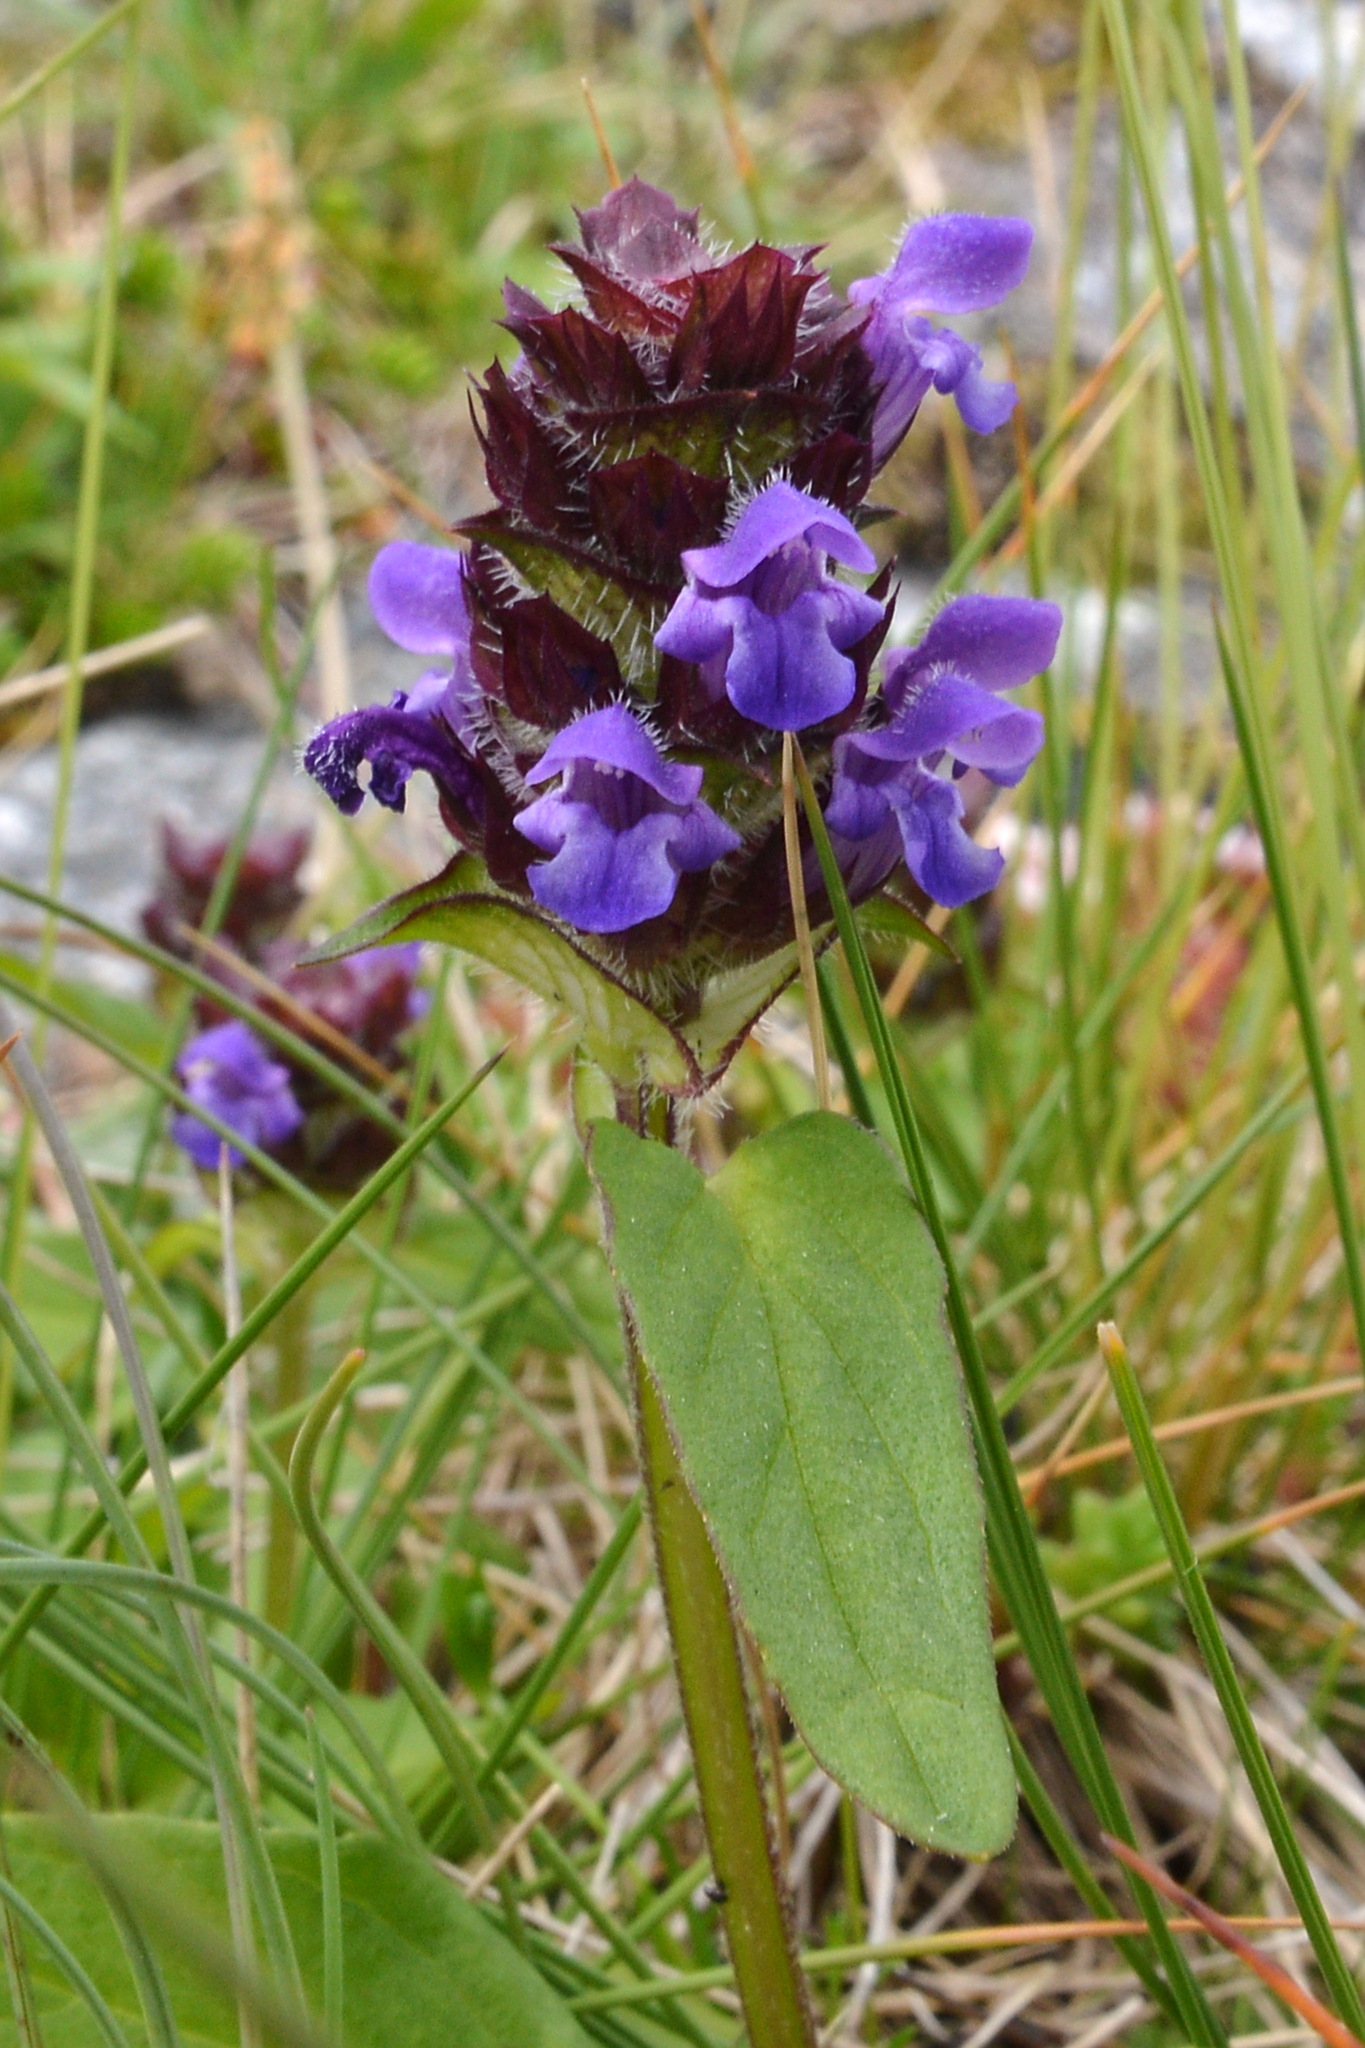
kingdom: Plantae
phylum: Tracheophyta
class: Magnoliopsida
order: Lamiales
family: Lamiaceae
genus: Prunella
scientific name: Prunella vulgaris
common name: Heal-all
